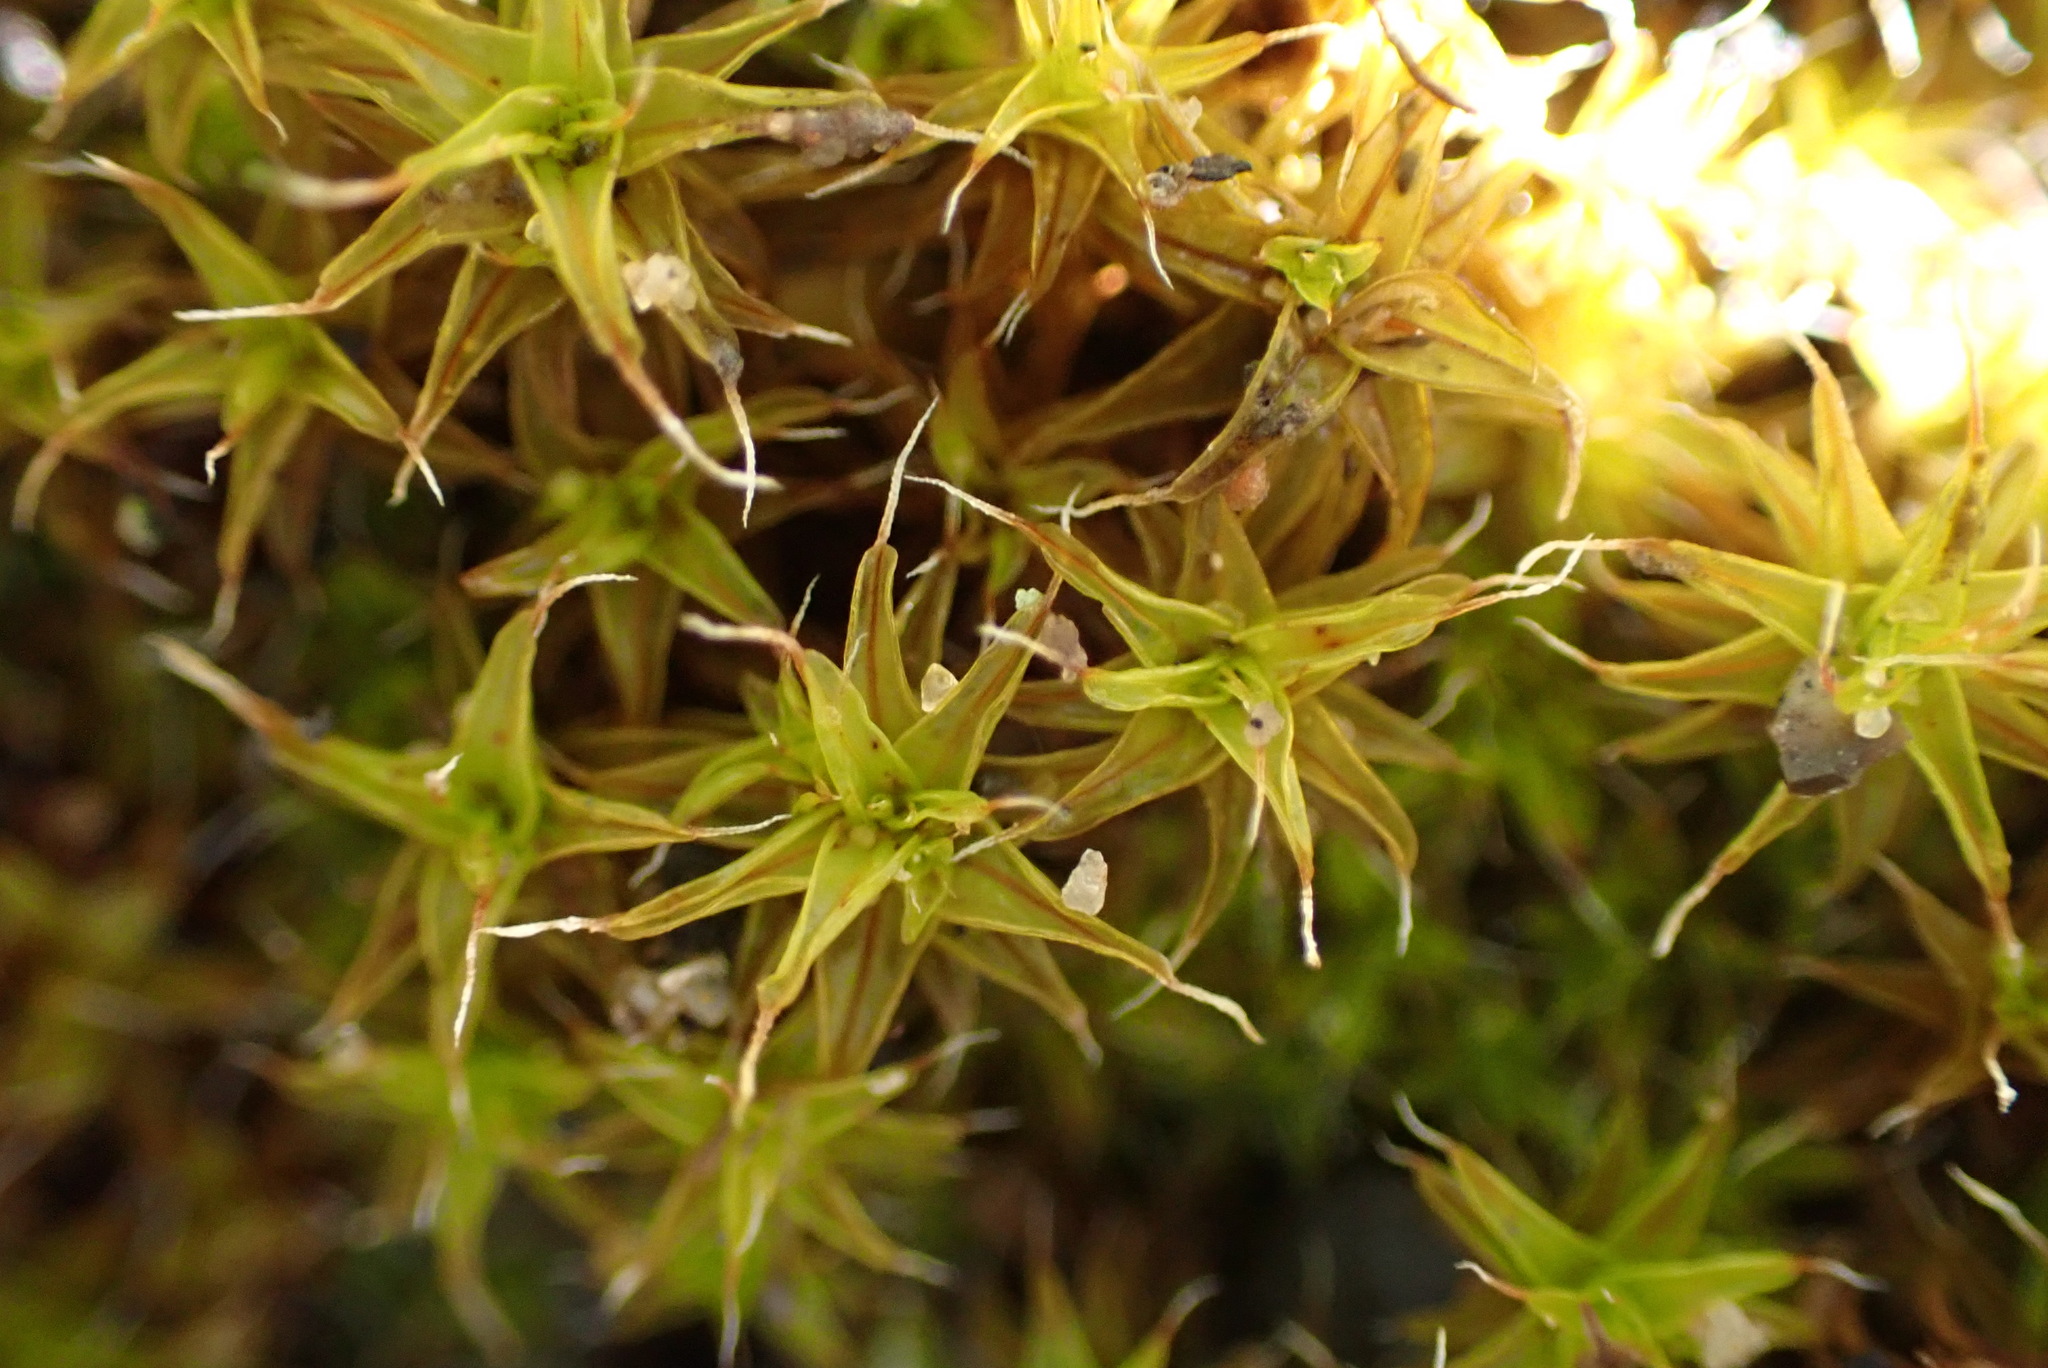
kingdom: Plantae
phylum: Bryophyta
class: Bryopsida
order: Pottiales
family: Pottiaceae
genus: Syntrichia
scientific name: Syntrichia ruralis
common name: Sidewalk screw moss
